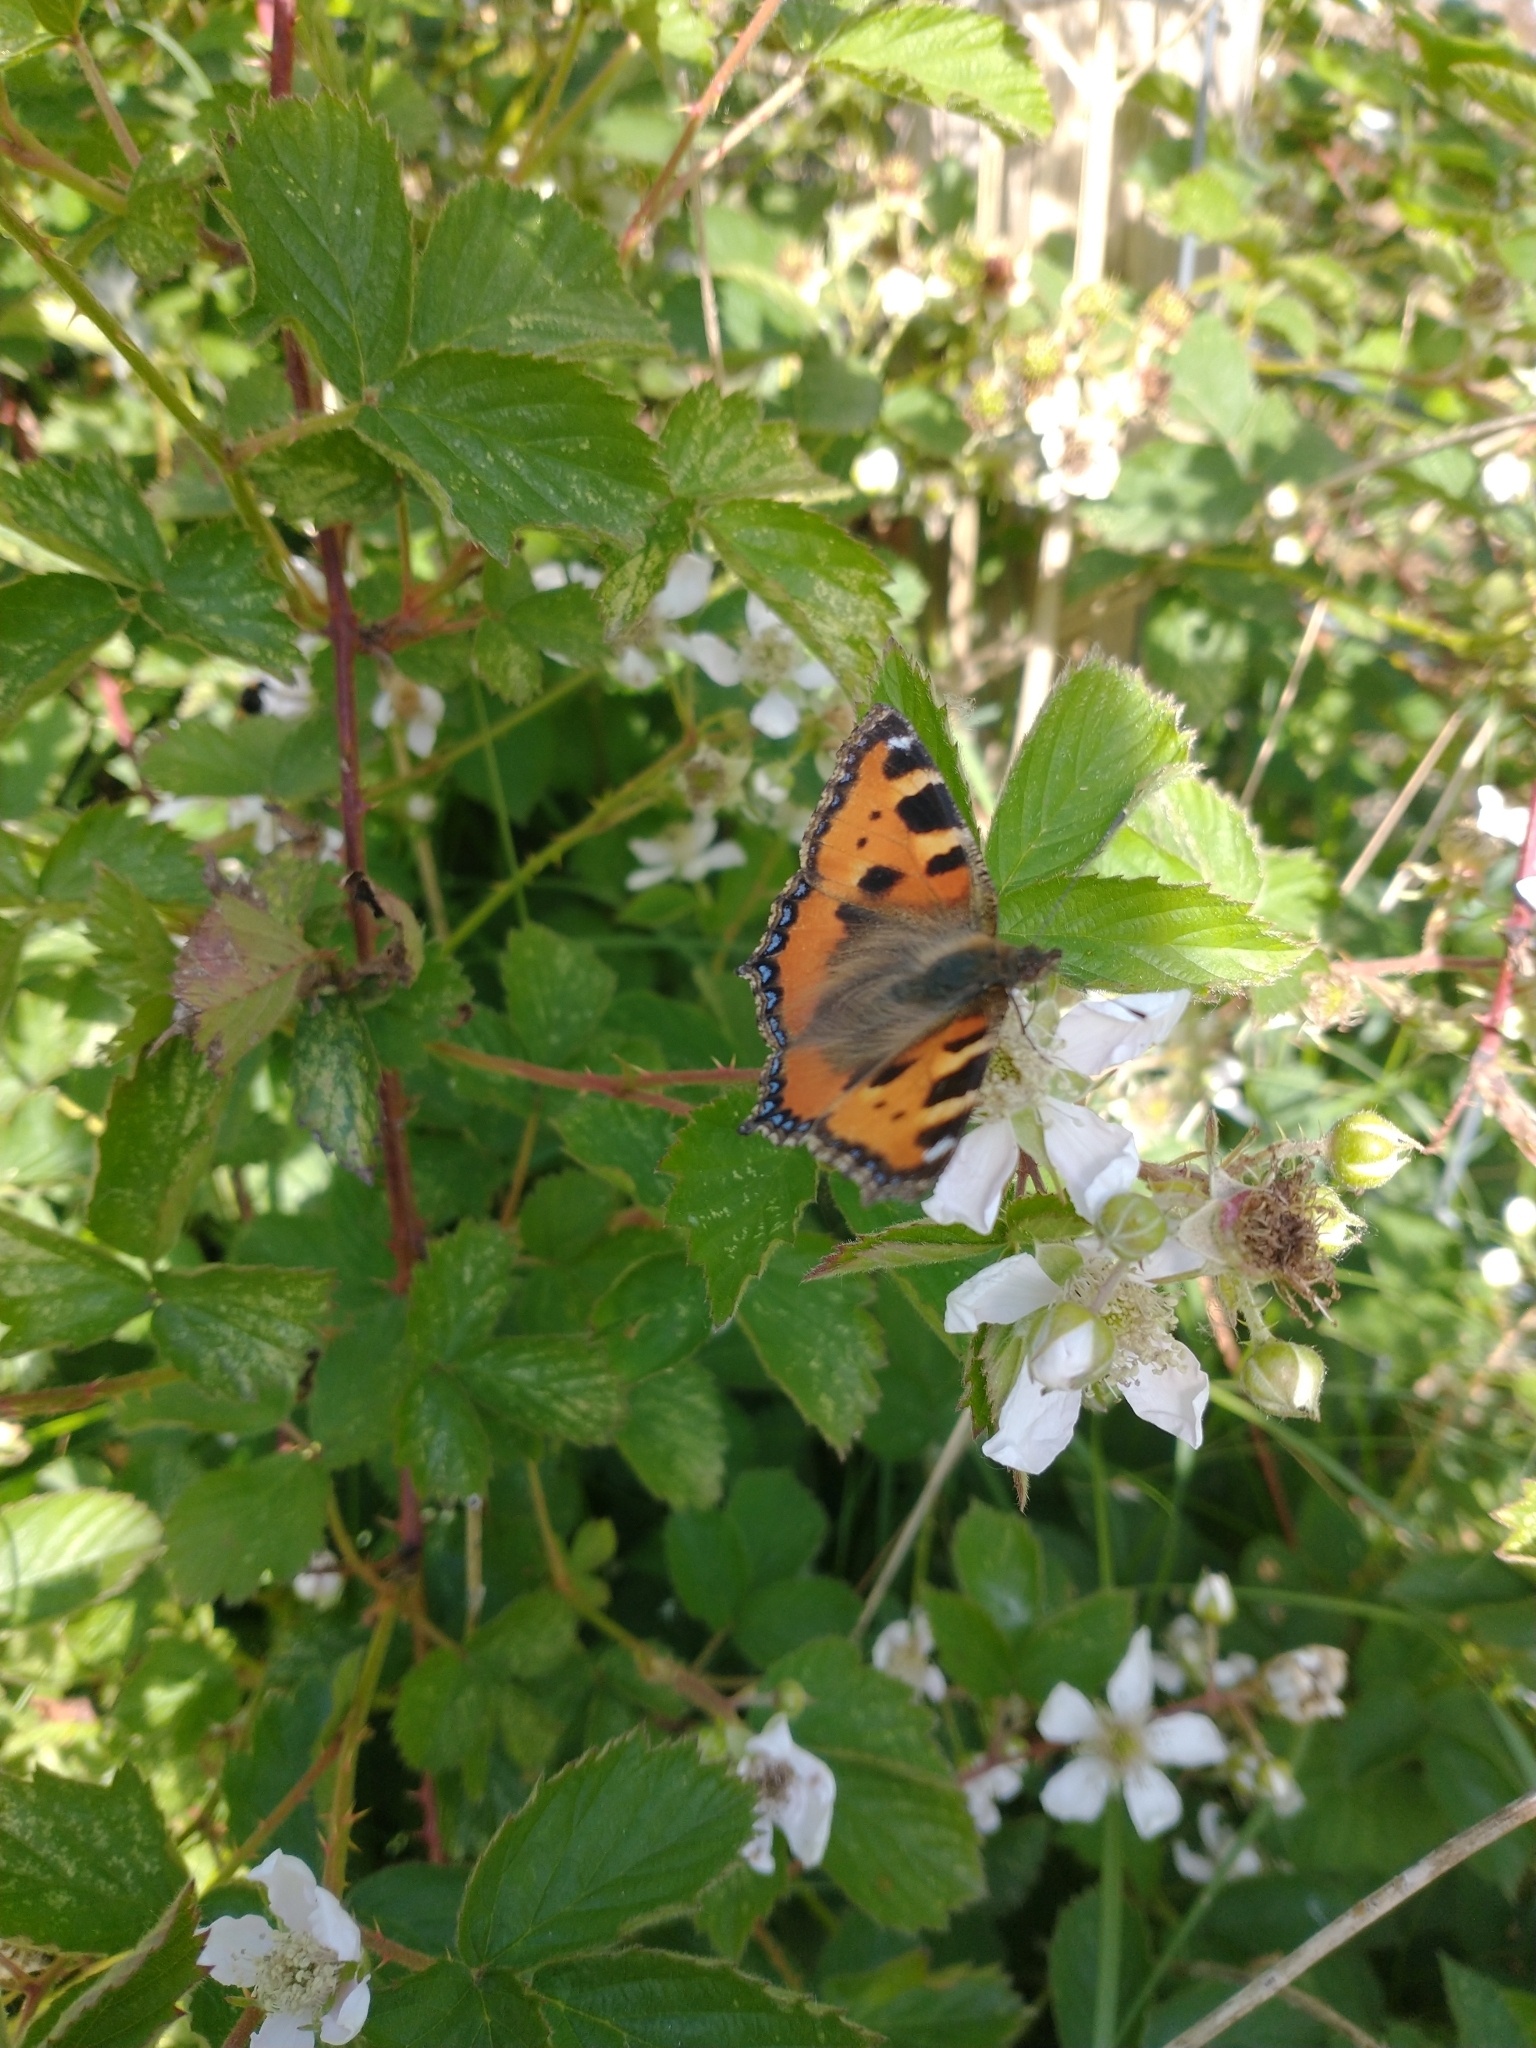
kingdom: Animalia
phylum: Arthropoda
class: Insecta
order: Lepidoptera
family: Nymphalidae
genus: Aglais
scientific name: Aglais urticae
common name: Small tortoiseshell
